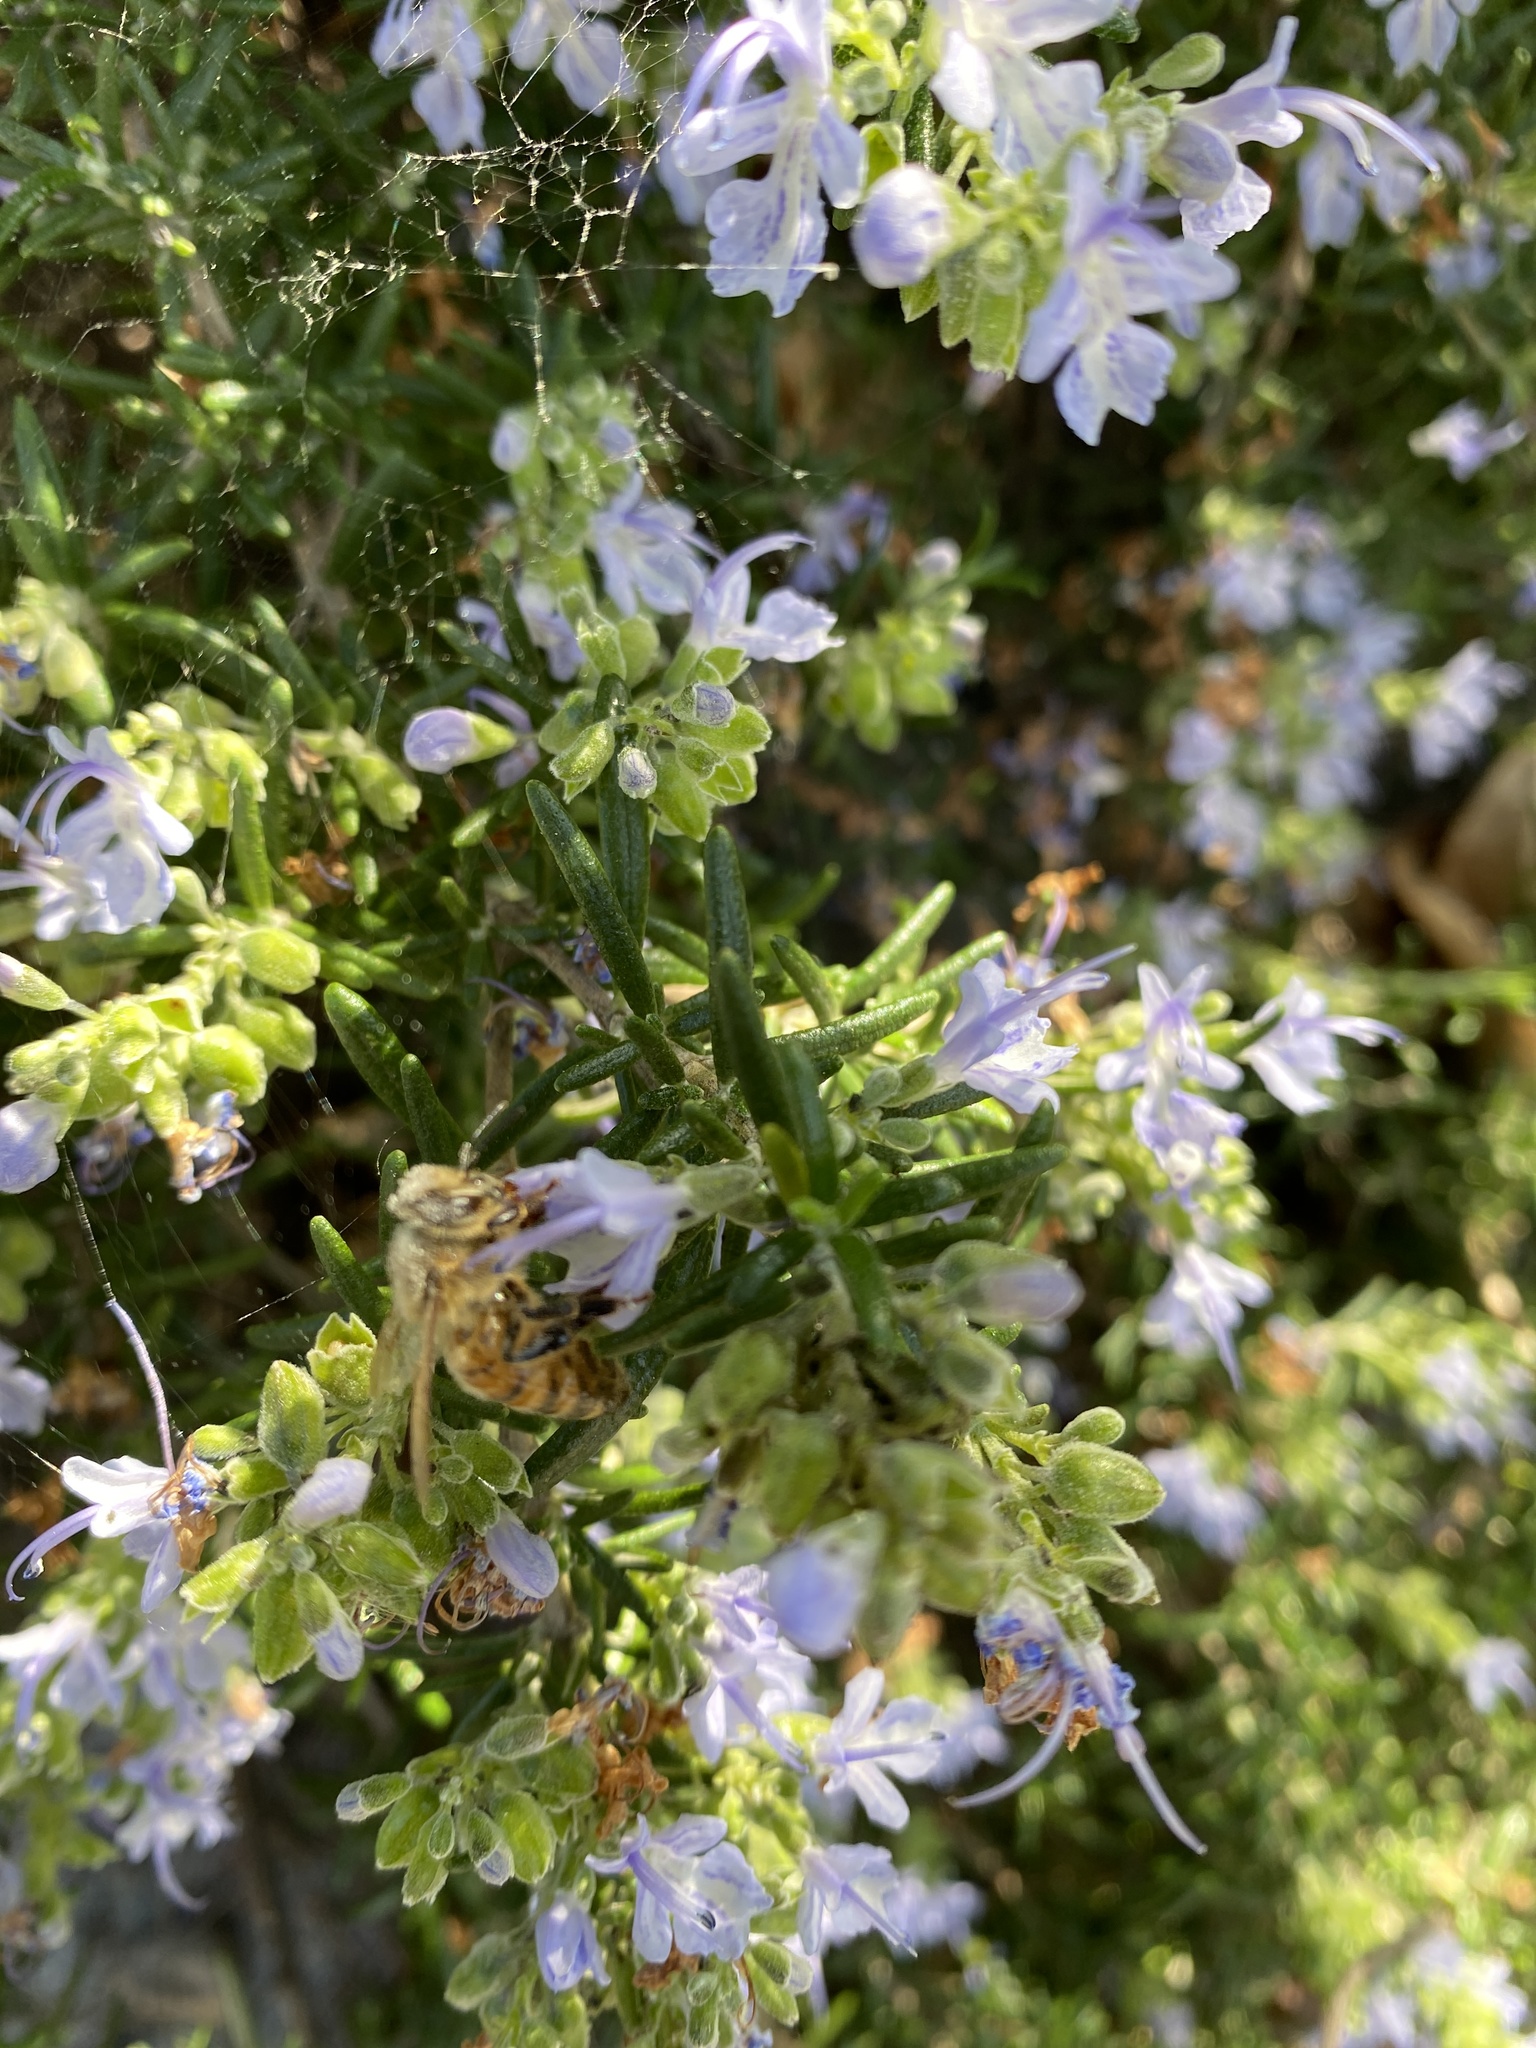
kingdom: Animalia
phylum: Arthropoda
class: Insecta
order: Hymenoptera
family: Apidae
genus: Apis
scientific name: Apis mellifera
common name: Honey bee
